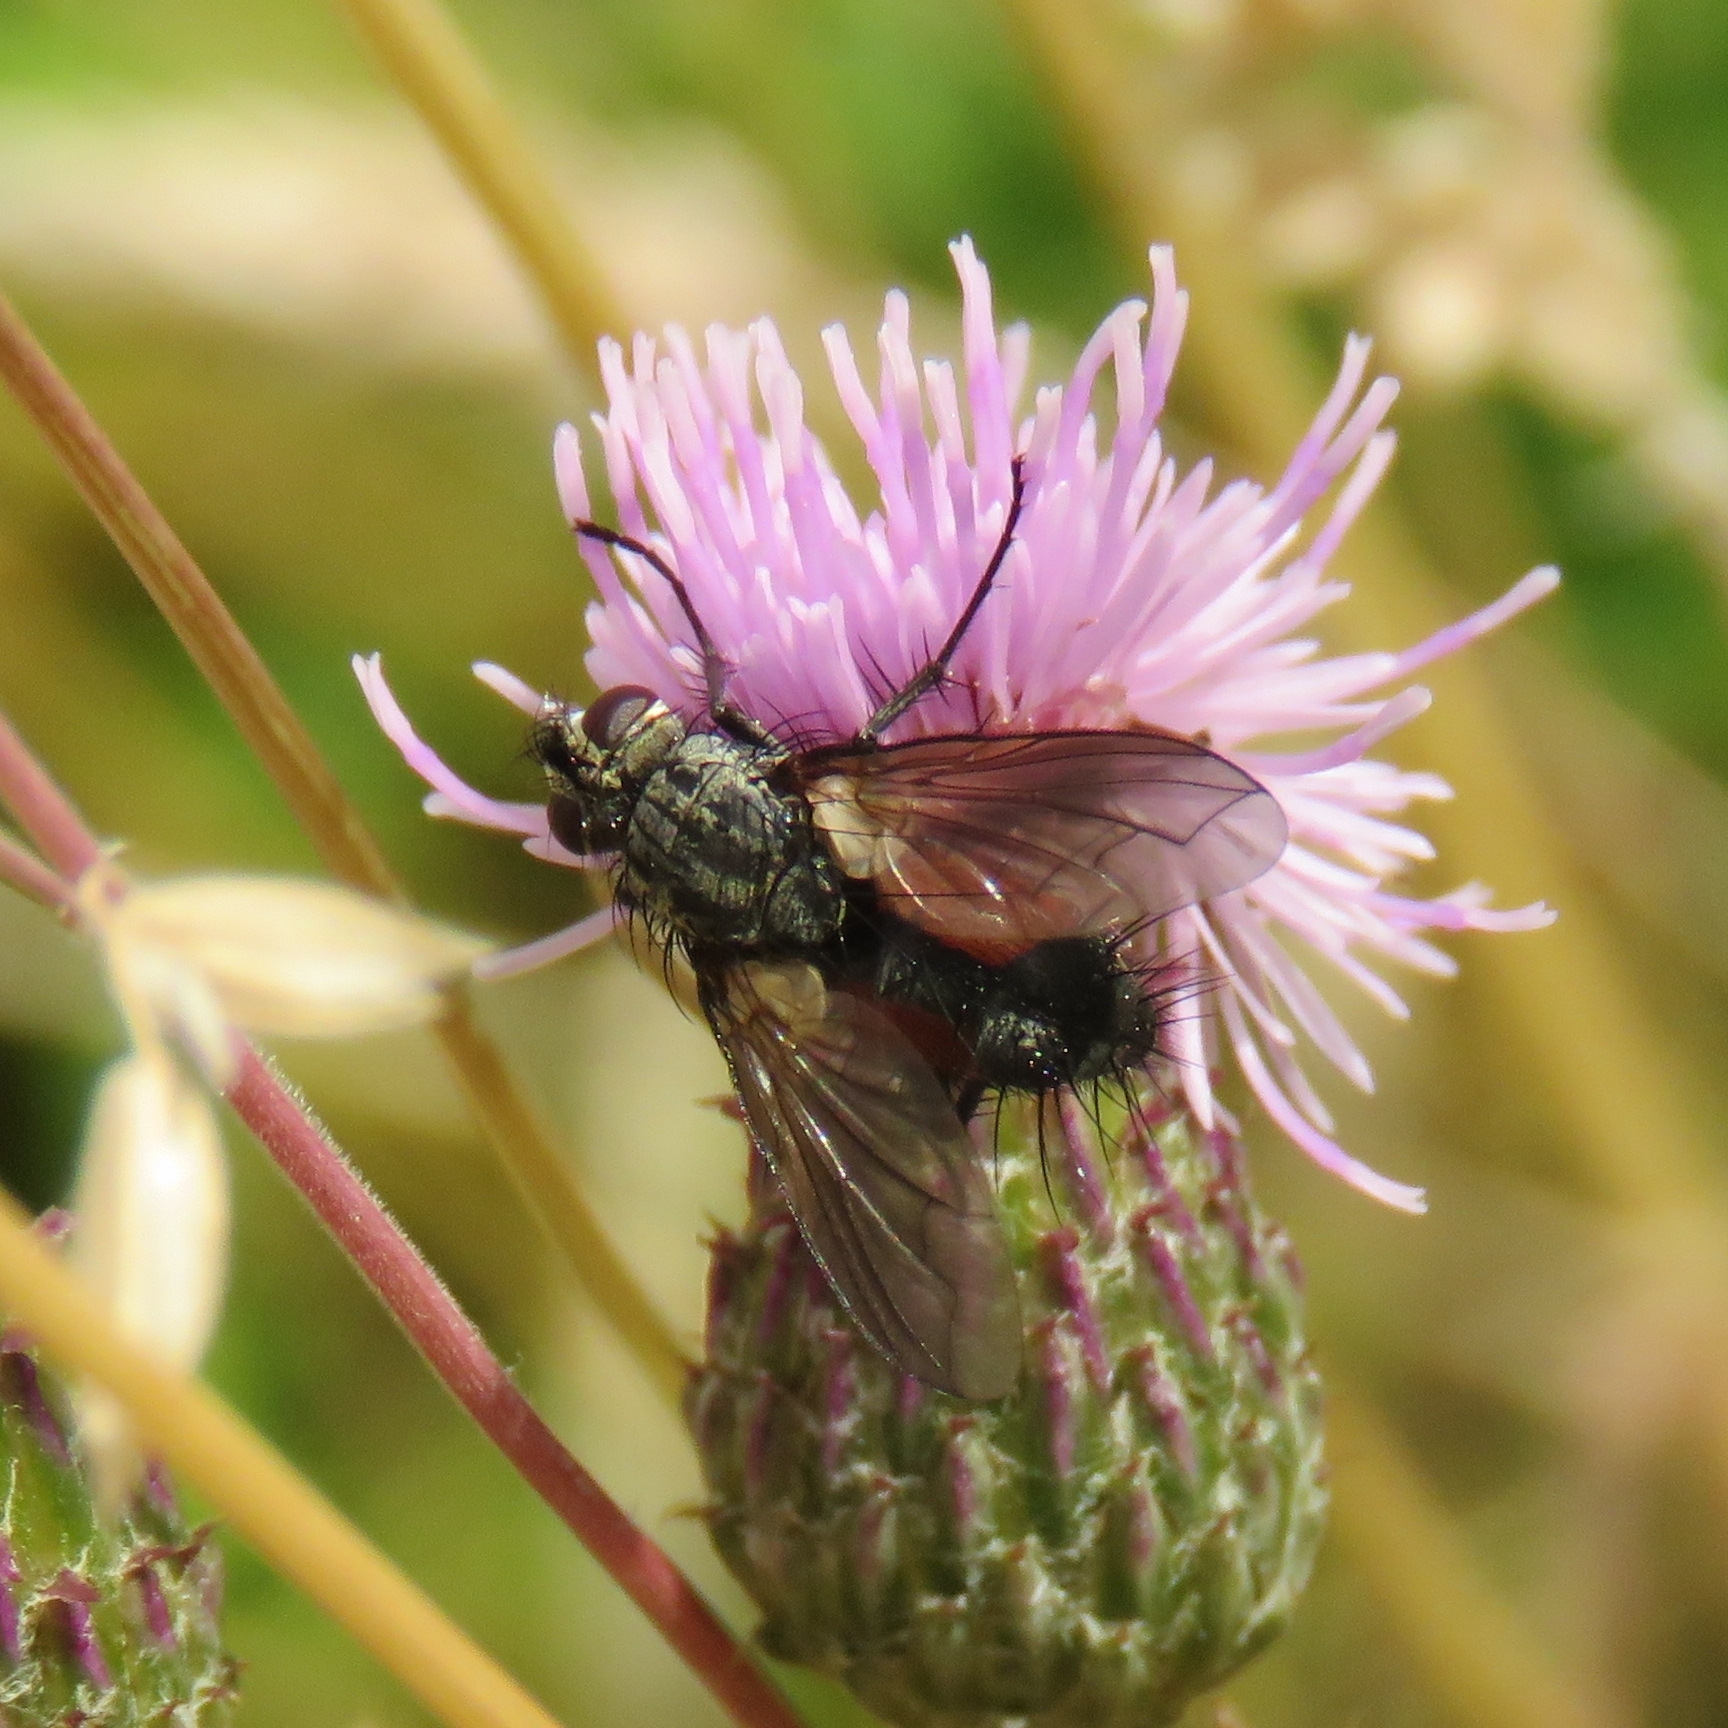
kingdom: Animalia
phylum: Arthropoda
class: Insecta
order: Diptera
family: Tachinidae
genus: Eriothrix
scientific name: Eriothrix rufomaculatus
